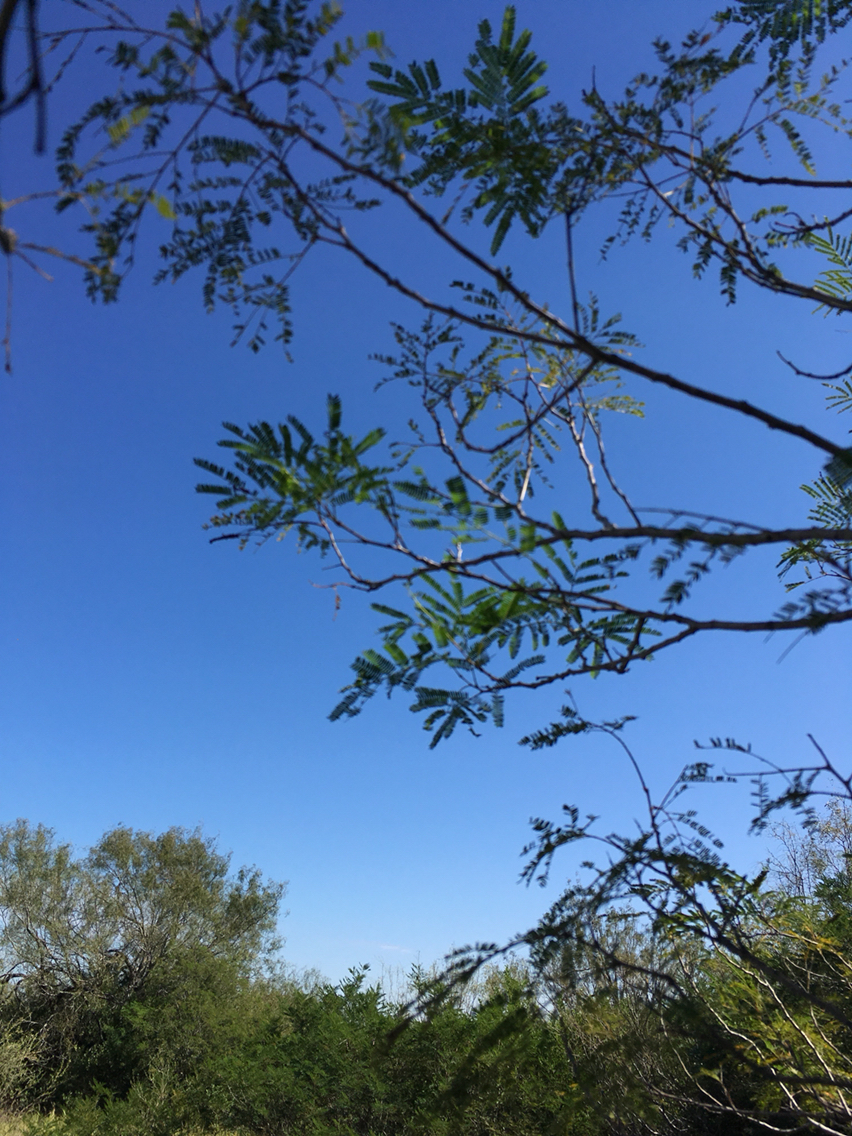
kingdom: Plantae
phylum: Tracheophyta
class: Magnoliopsida
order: Fabales
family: Fabaceae
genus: Senegalia
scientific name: Senegalia berlandieri
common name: Berlandier acacia
